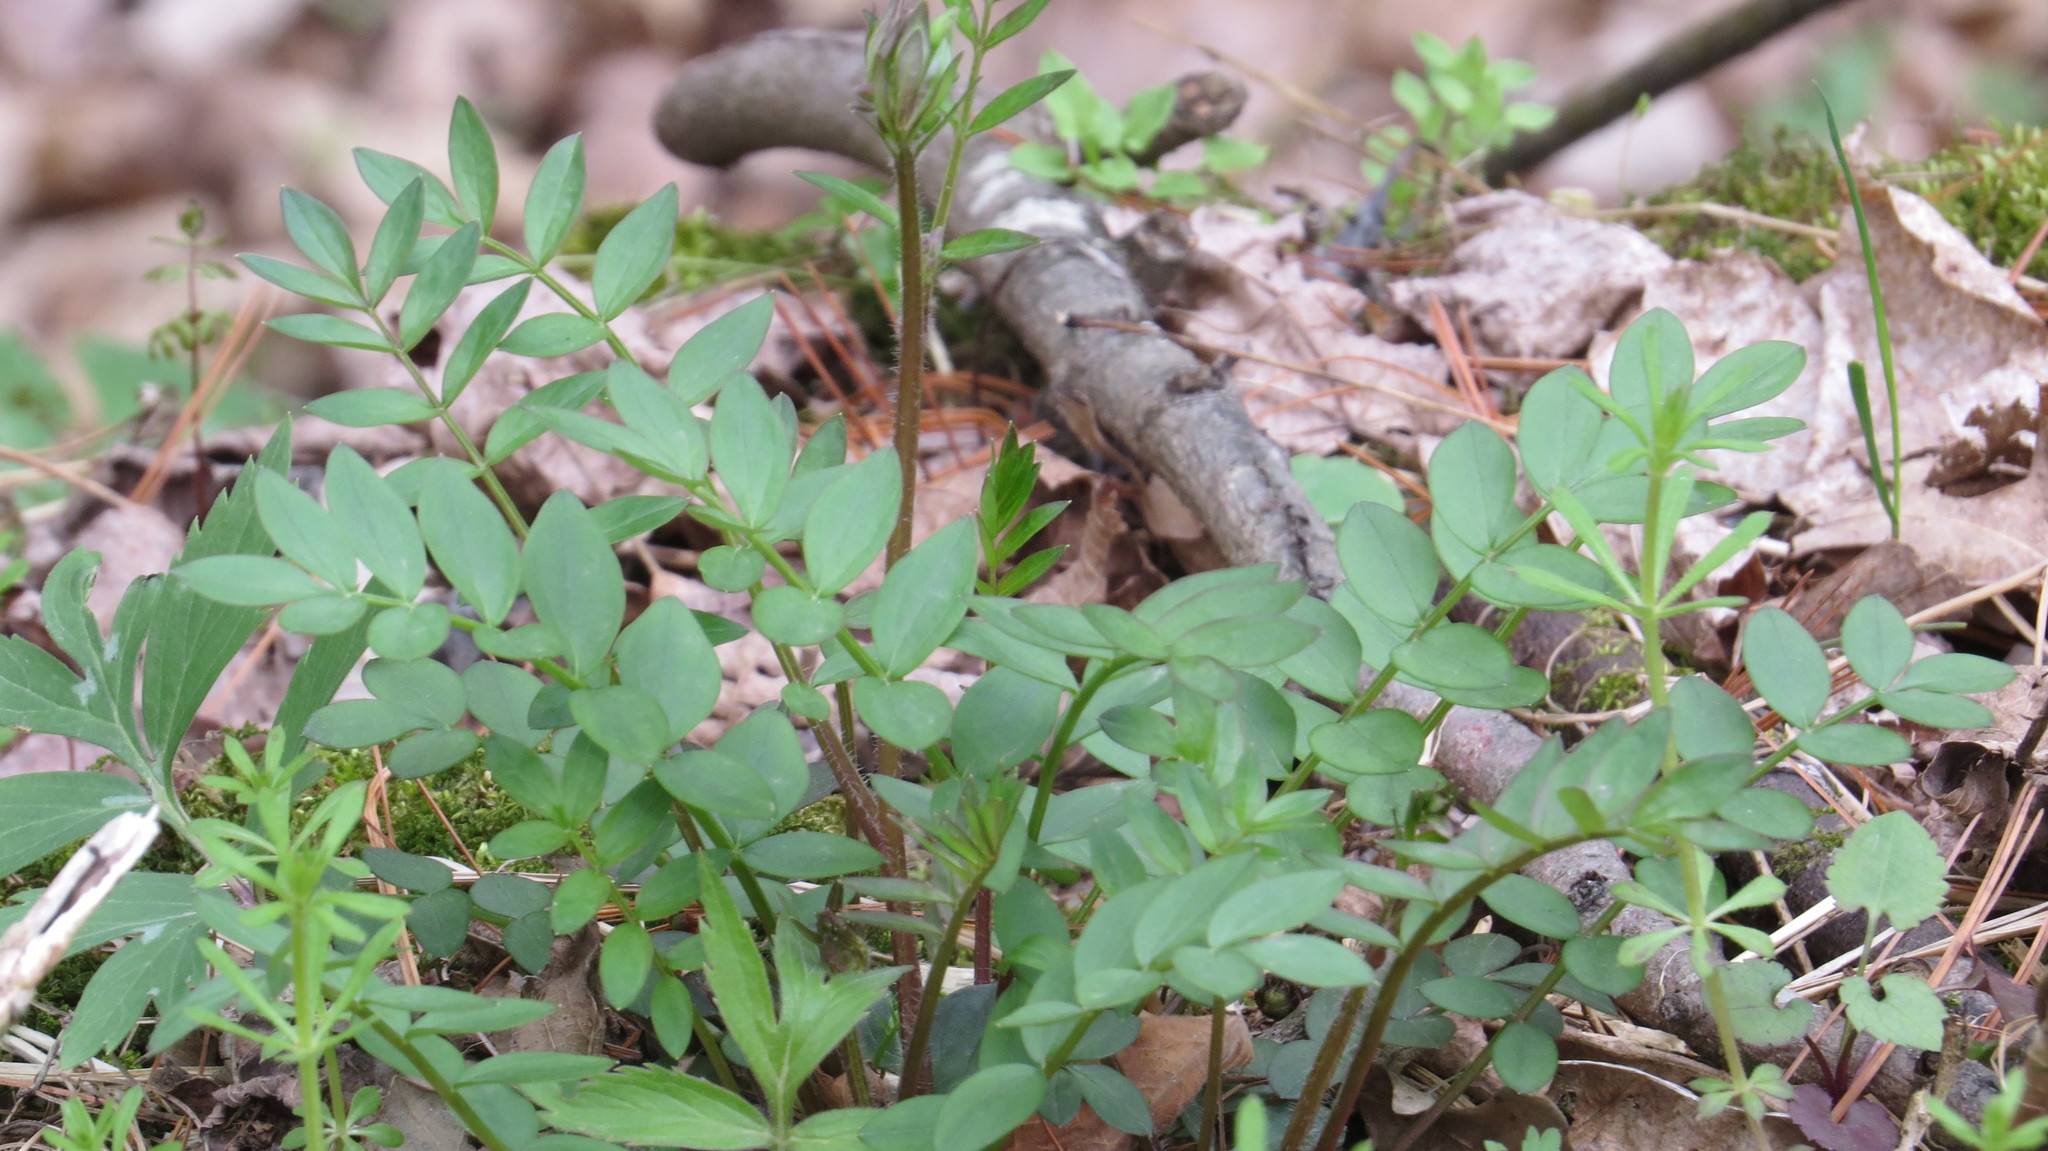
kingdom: Plantae
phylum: Tracheophyta
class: Magnoliopsida
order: Ericales
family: Polemoniaceae
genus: Polemonium
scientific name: Polemonium reptans
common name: Creeping jacob's-ladder
